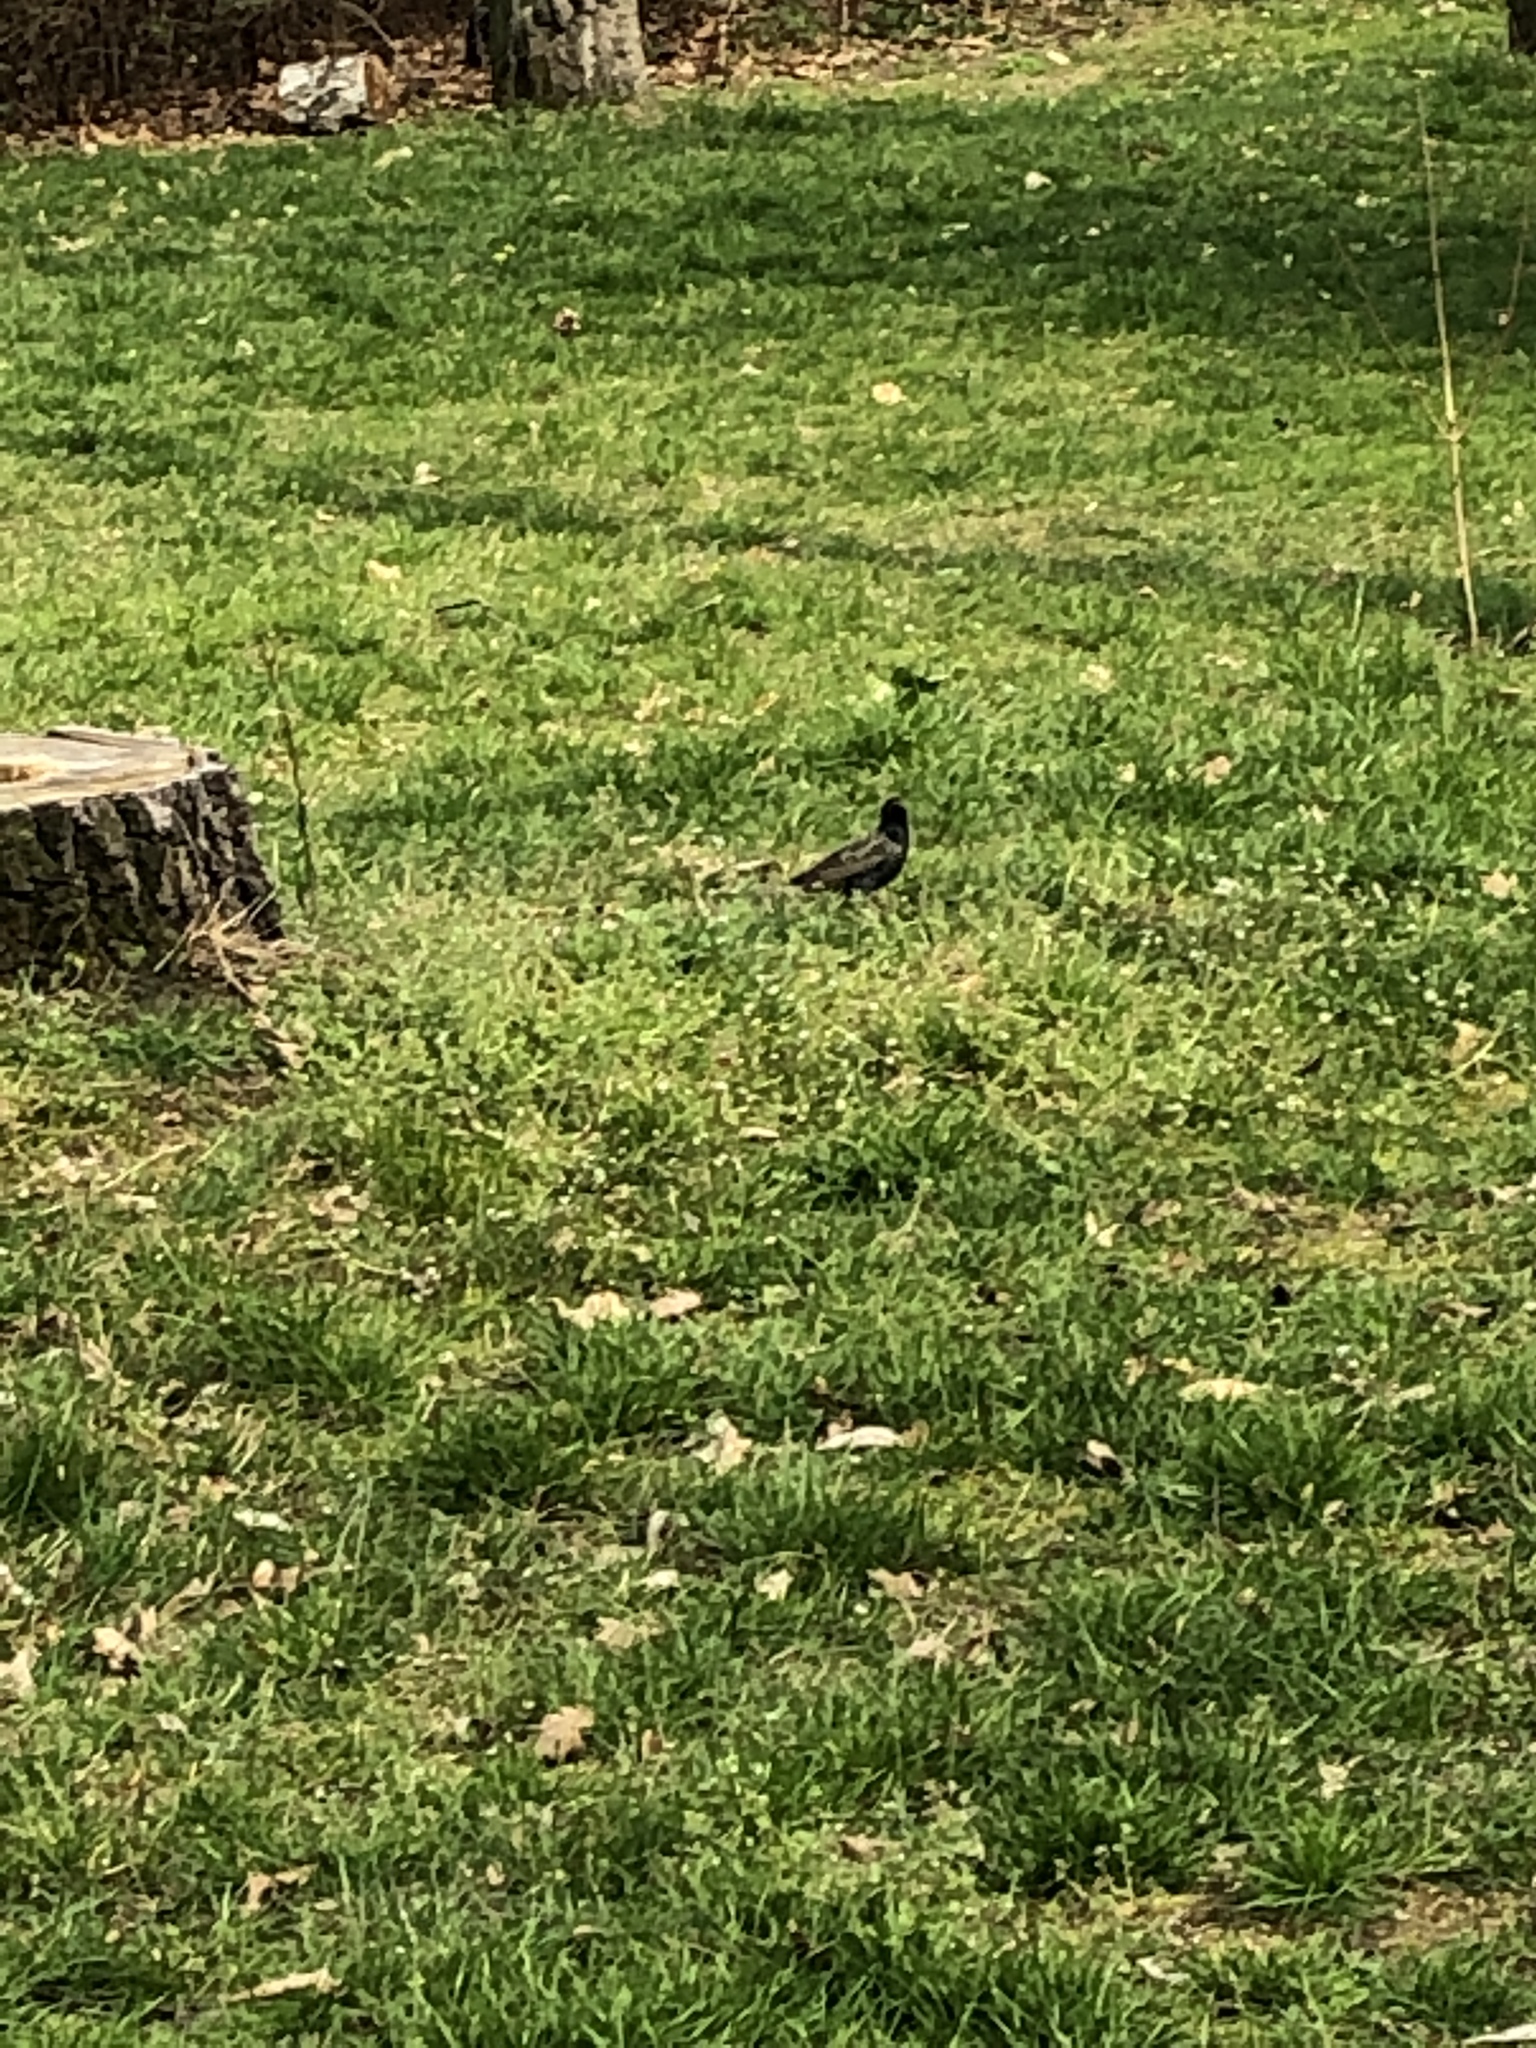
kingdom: Animalia
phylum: Chordata
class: Aves
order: Passeriformes
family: Sturnidae
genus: Sturnus
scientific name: Sturnus vulgaris
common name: Common starling
